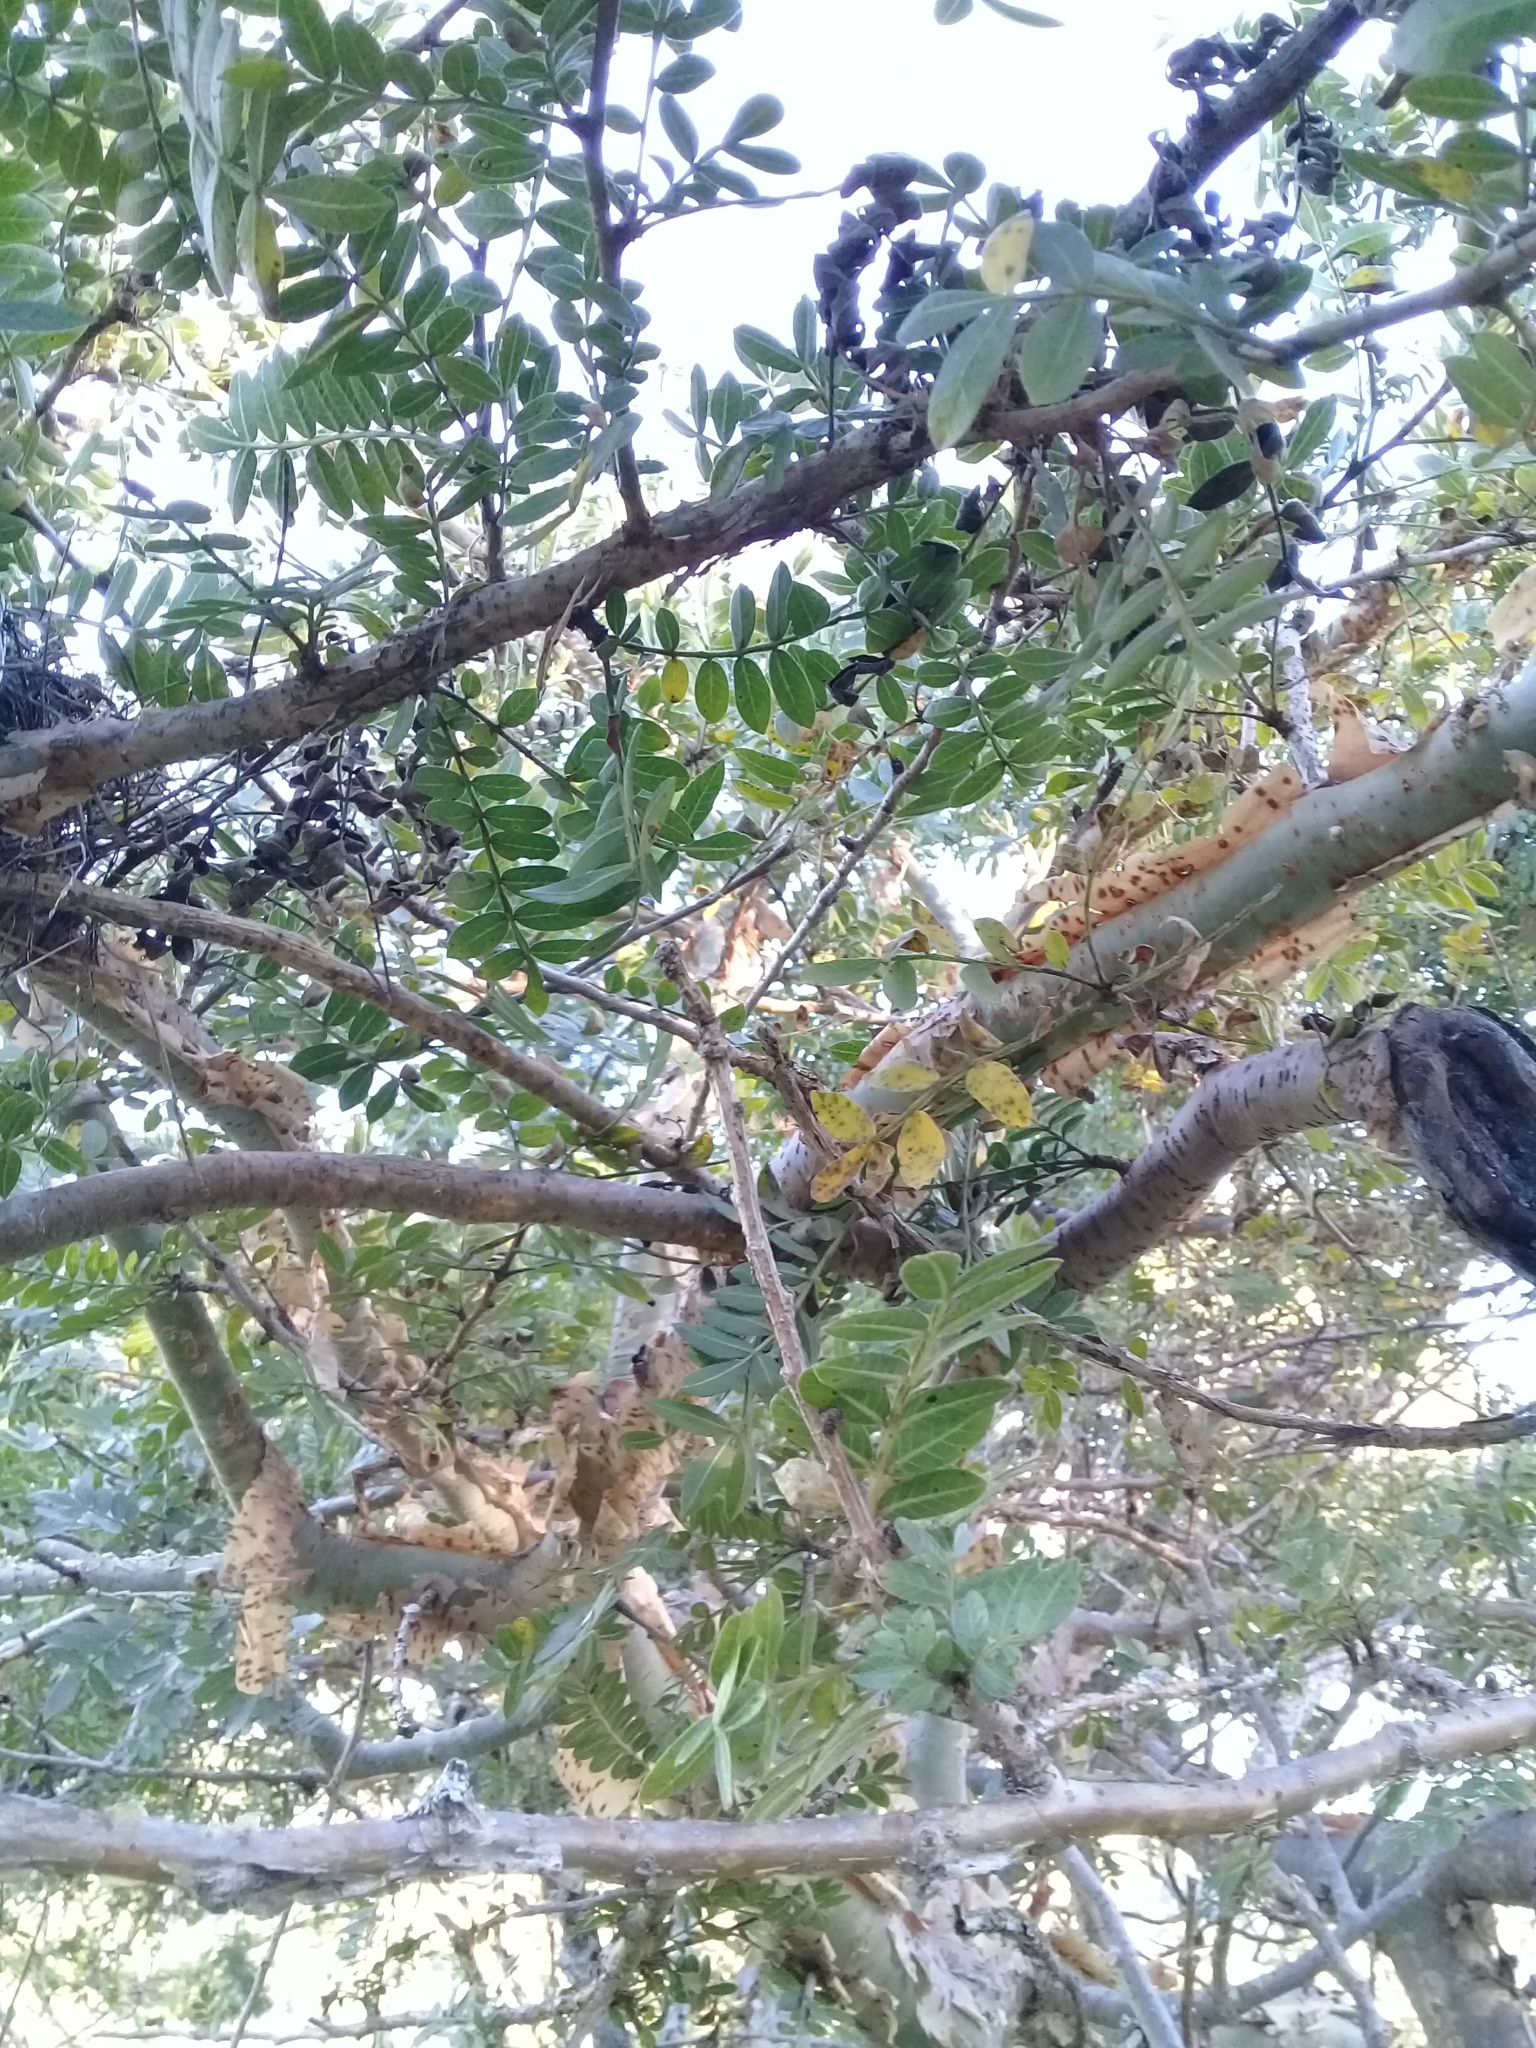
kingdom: Plantae
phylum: Tracheophyta
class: Magnoliopsida
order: Sapindales
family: Burseraceae
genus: Bursera
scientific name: Bursera fagaroides
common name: Elephant tree
